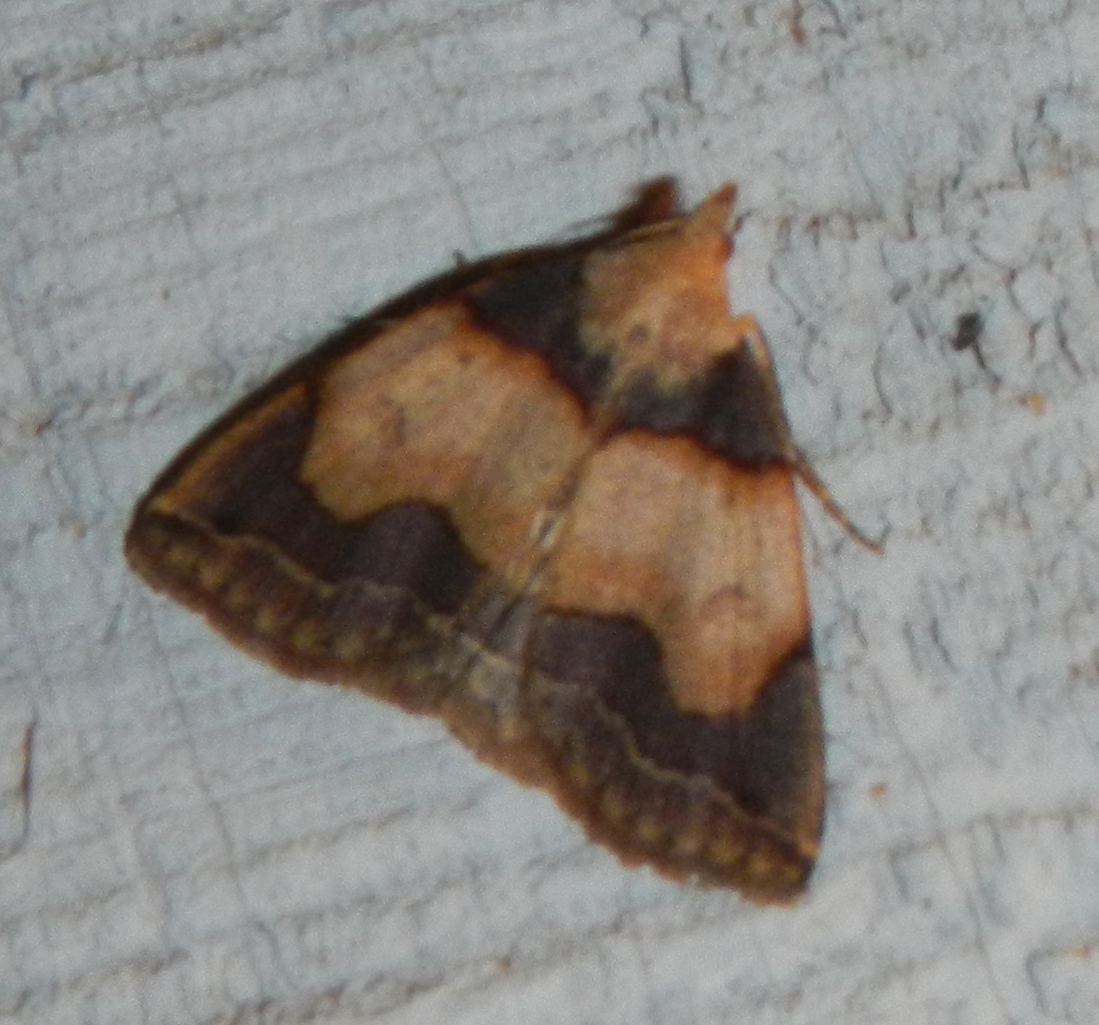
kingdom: Animalia
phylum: Arthropoda
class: Insecta
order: Lepidoptera
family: Erebidae
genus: Zanclognatha
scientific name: Zanclognatha laevigata
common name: Variable fan-foot
